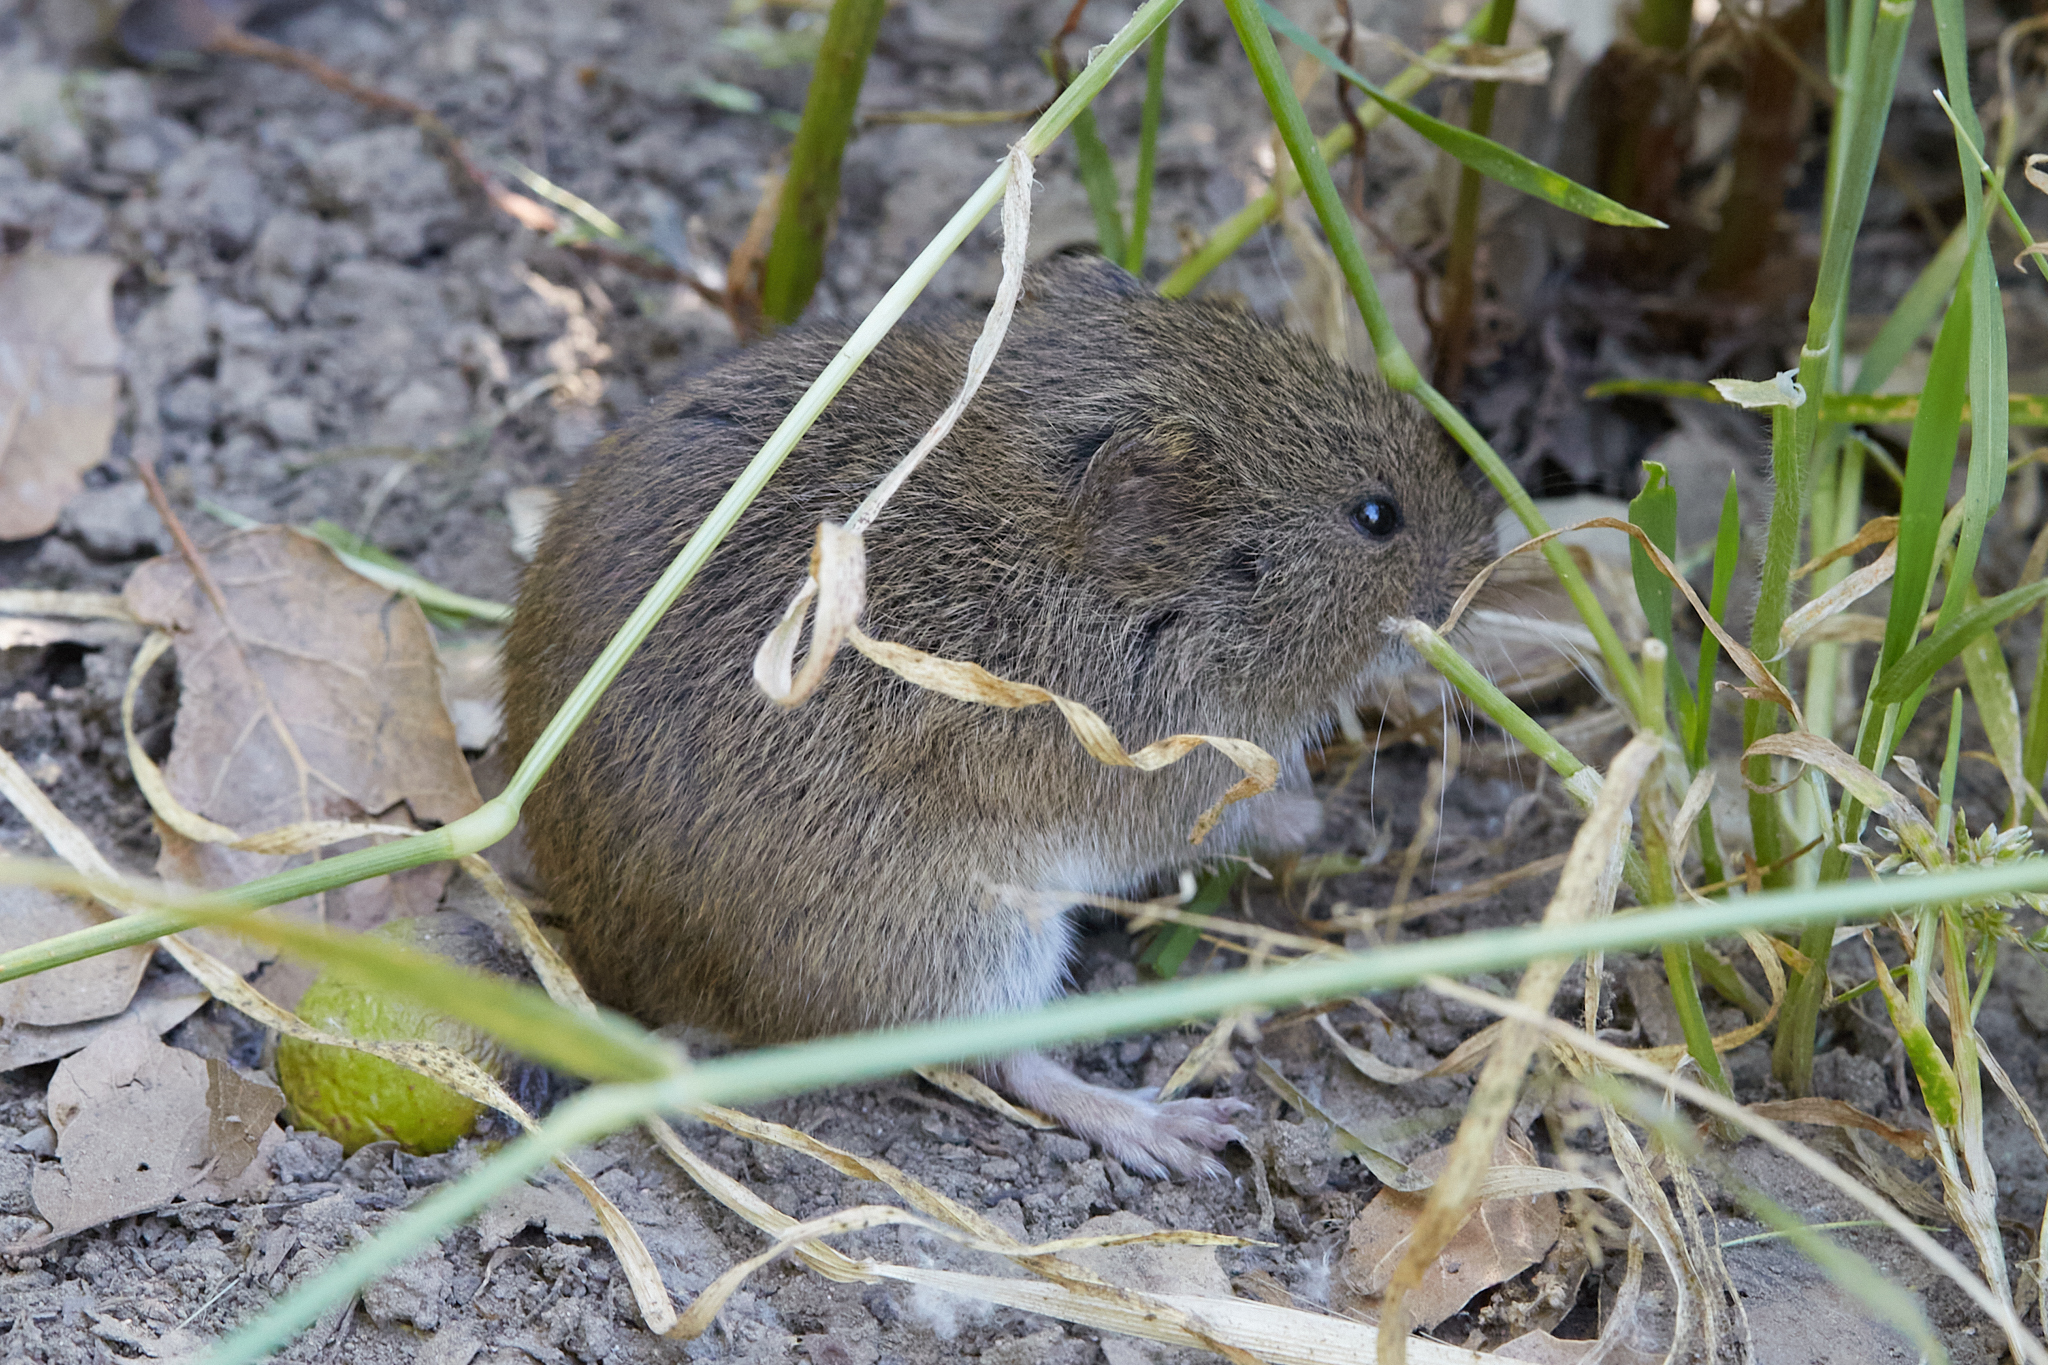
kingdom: Animalia
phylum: Chordata
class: Mammalia
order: Rodentia
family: Cricetidae
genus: Microtus
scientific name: Microtus californicus
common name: California vole
